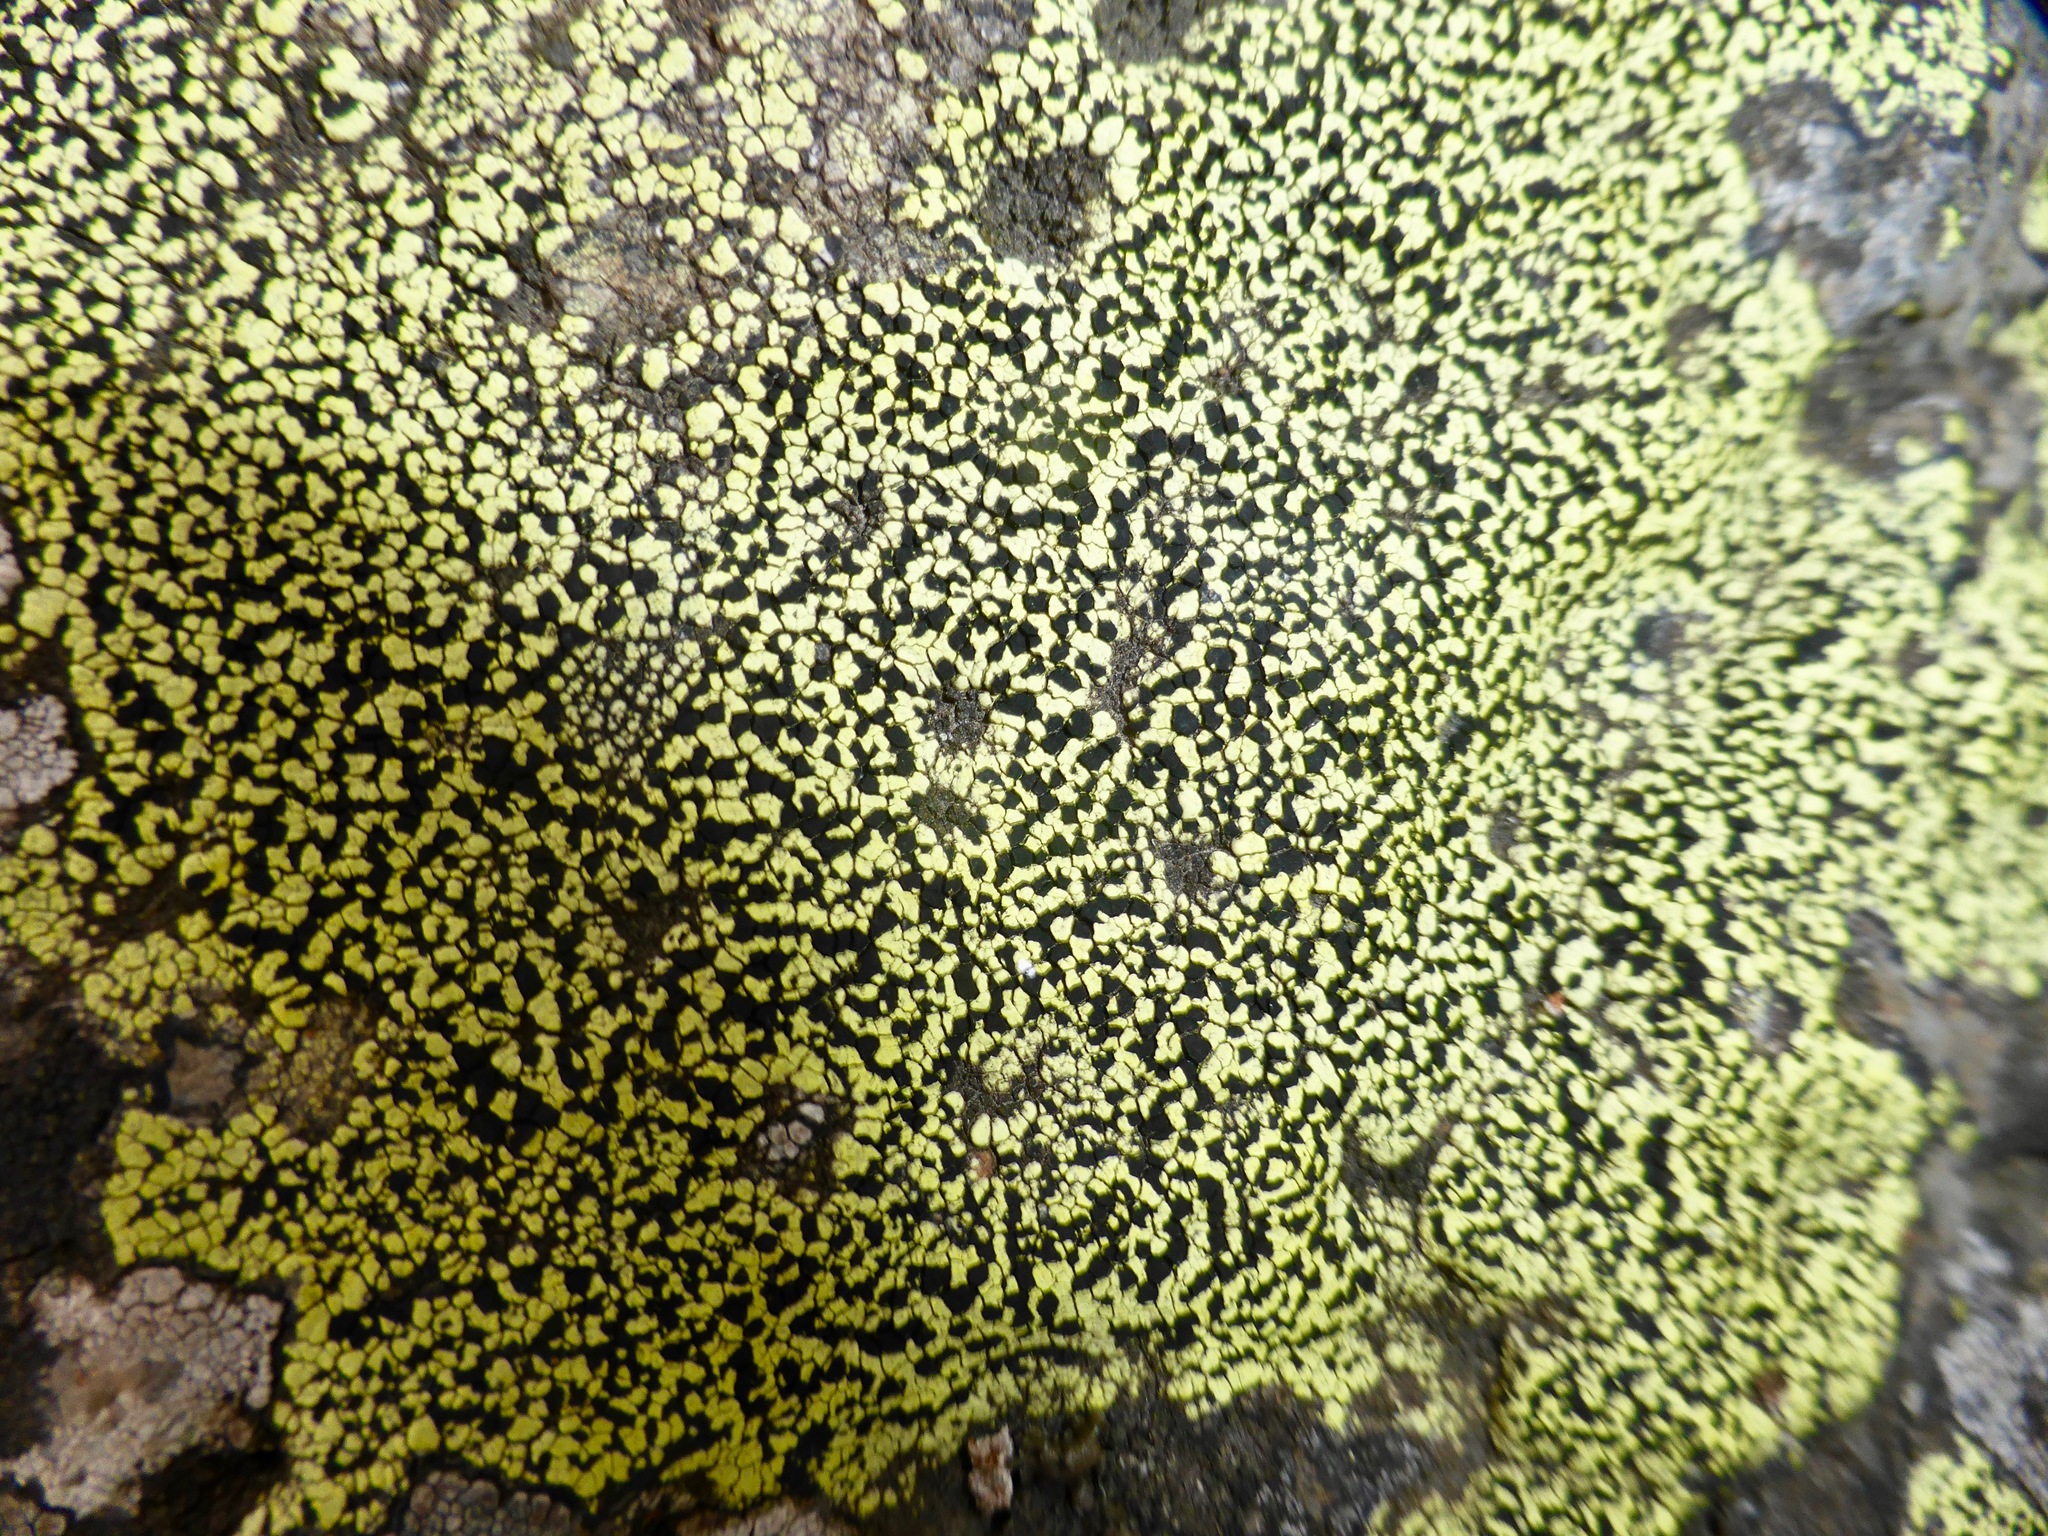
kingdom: Fungi
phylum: Ascomycota
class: Lecanoromycetes
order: Rhizocarpales
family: Rhizocarpaceae
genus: Rhizocarpon
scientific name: Rhizocarpon geographicum
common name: Yellow map lichen
